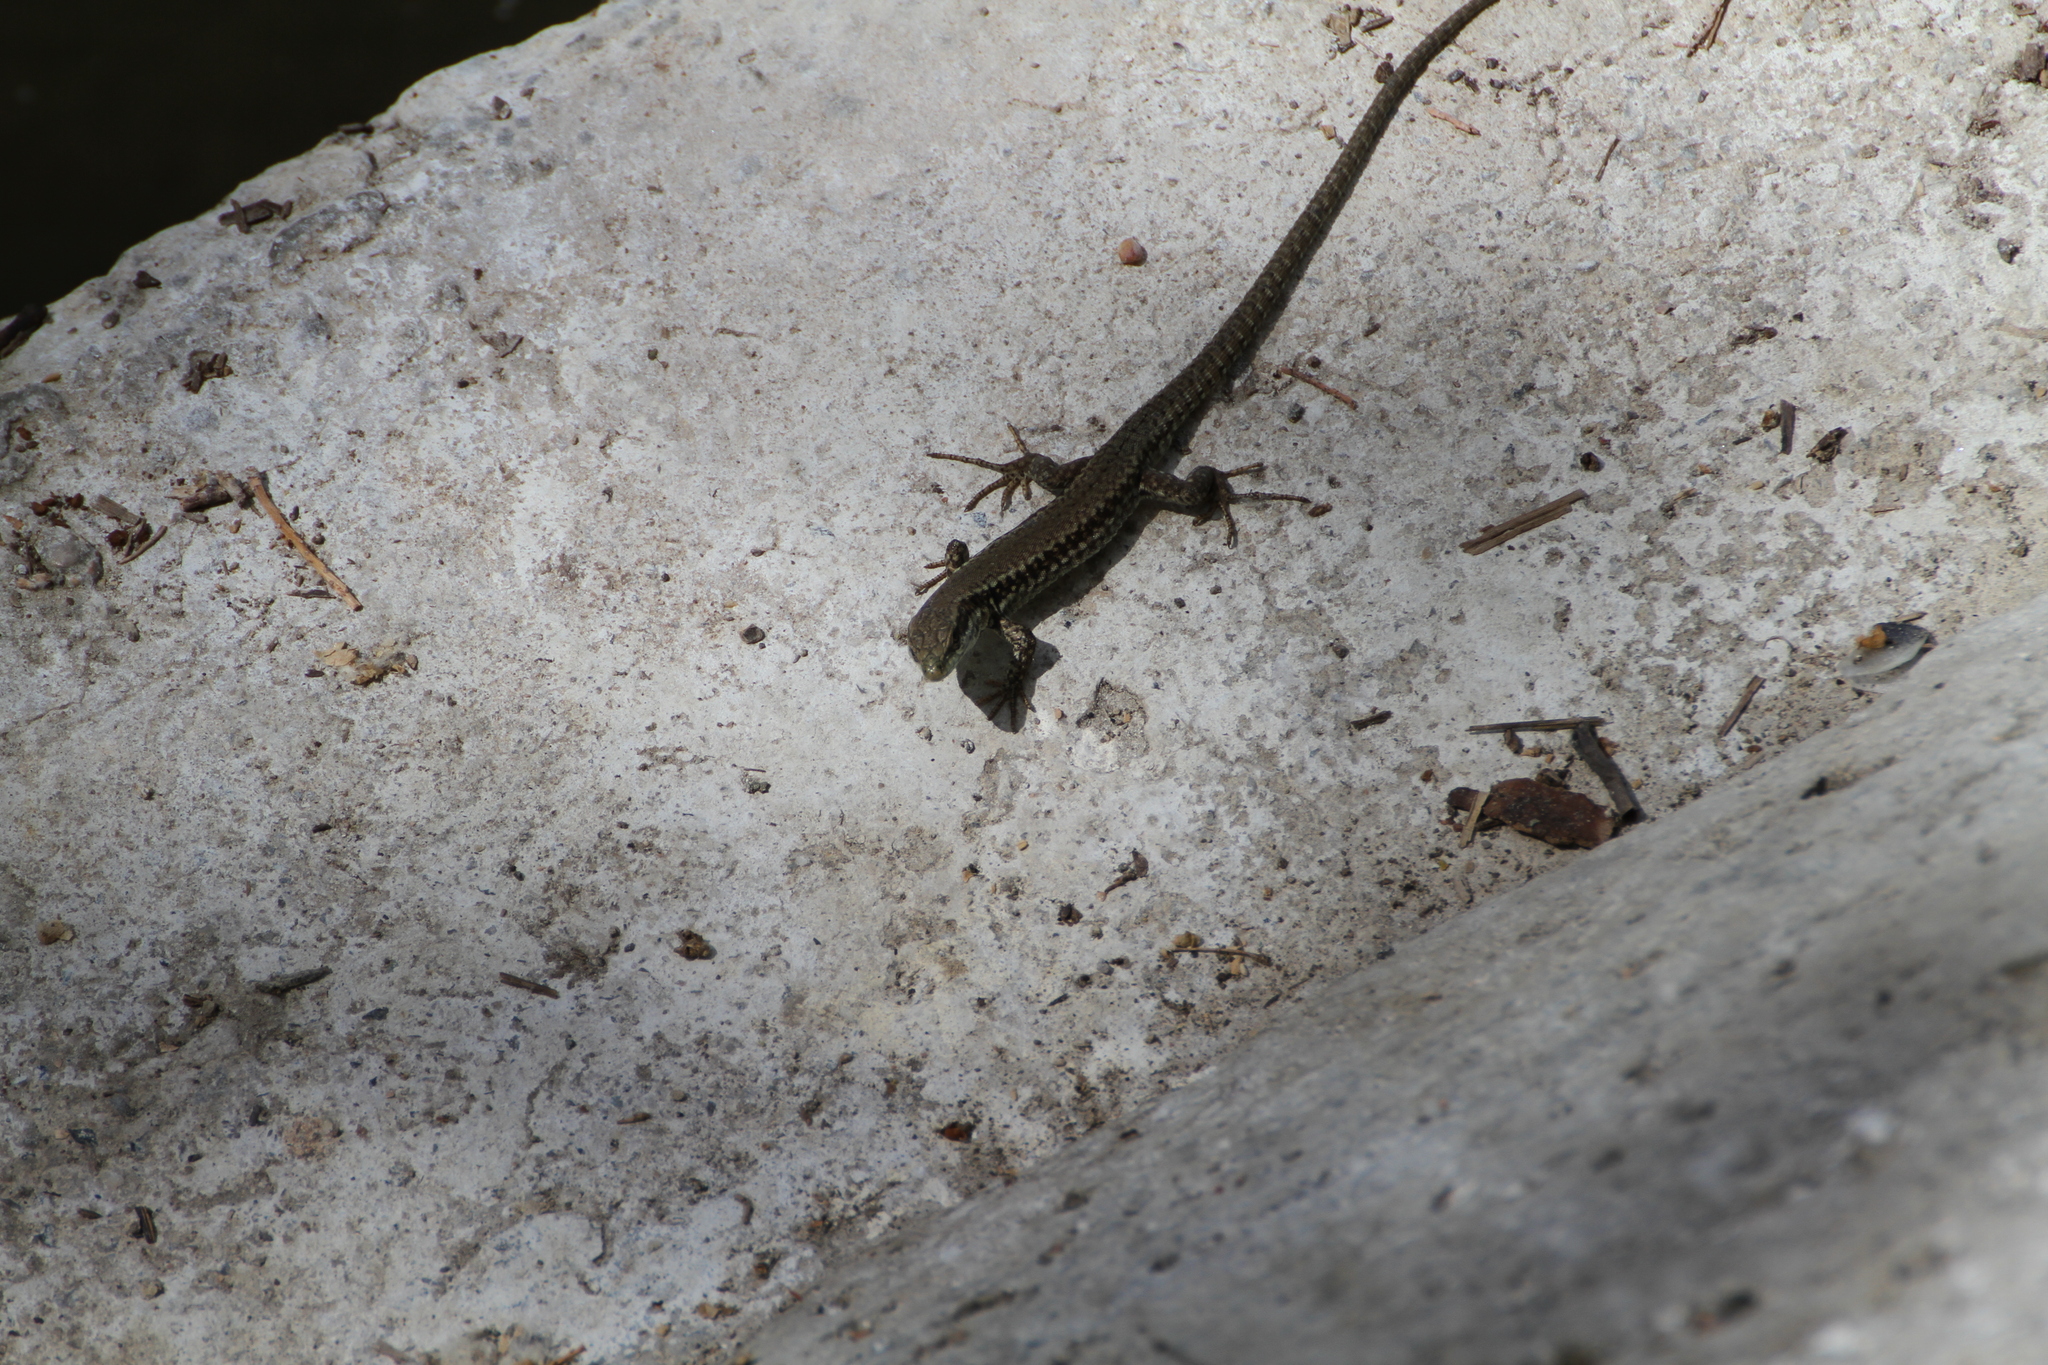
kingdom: Animalia
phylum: Chordata
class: Squamata
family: Lacertidae
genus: Podarcis
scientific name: Podarcis muralis
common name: Common wall lizard
